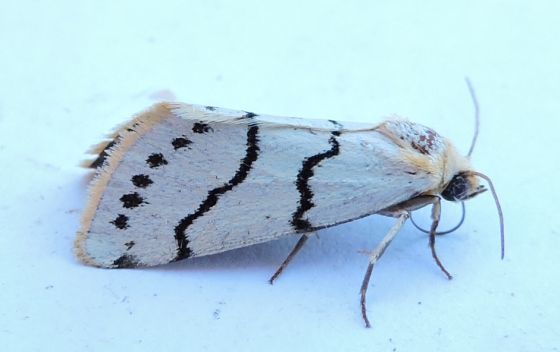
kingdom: Animalia
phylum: Arthropoda
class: Insecta
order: Lepidoptera
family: Noctuidae
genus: Lineostriastiria
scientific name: Lineostriastiria sexseriata
